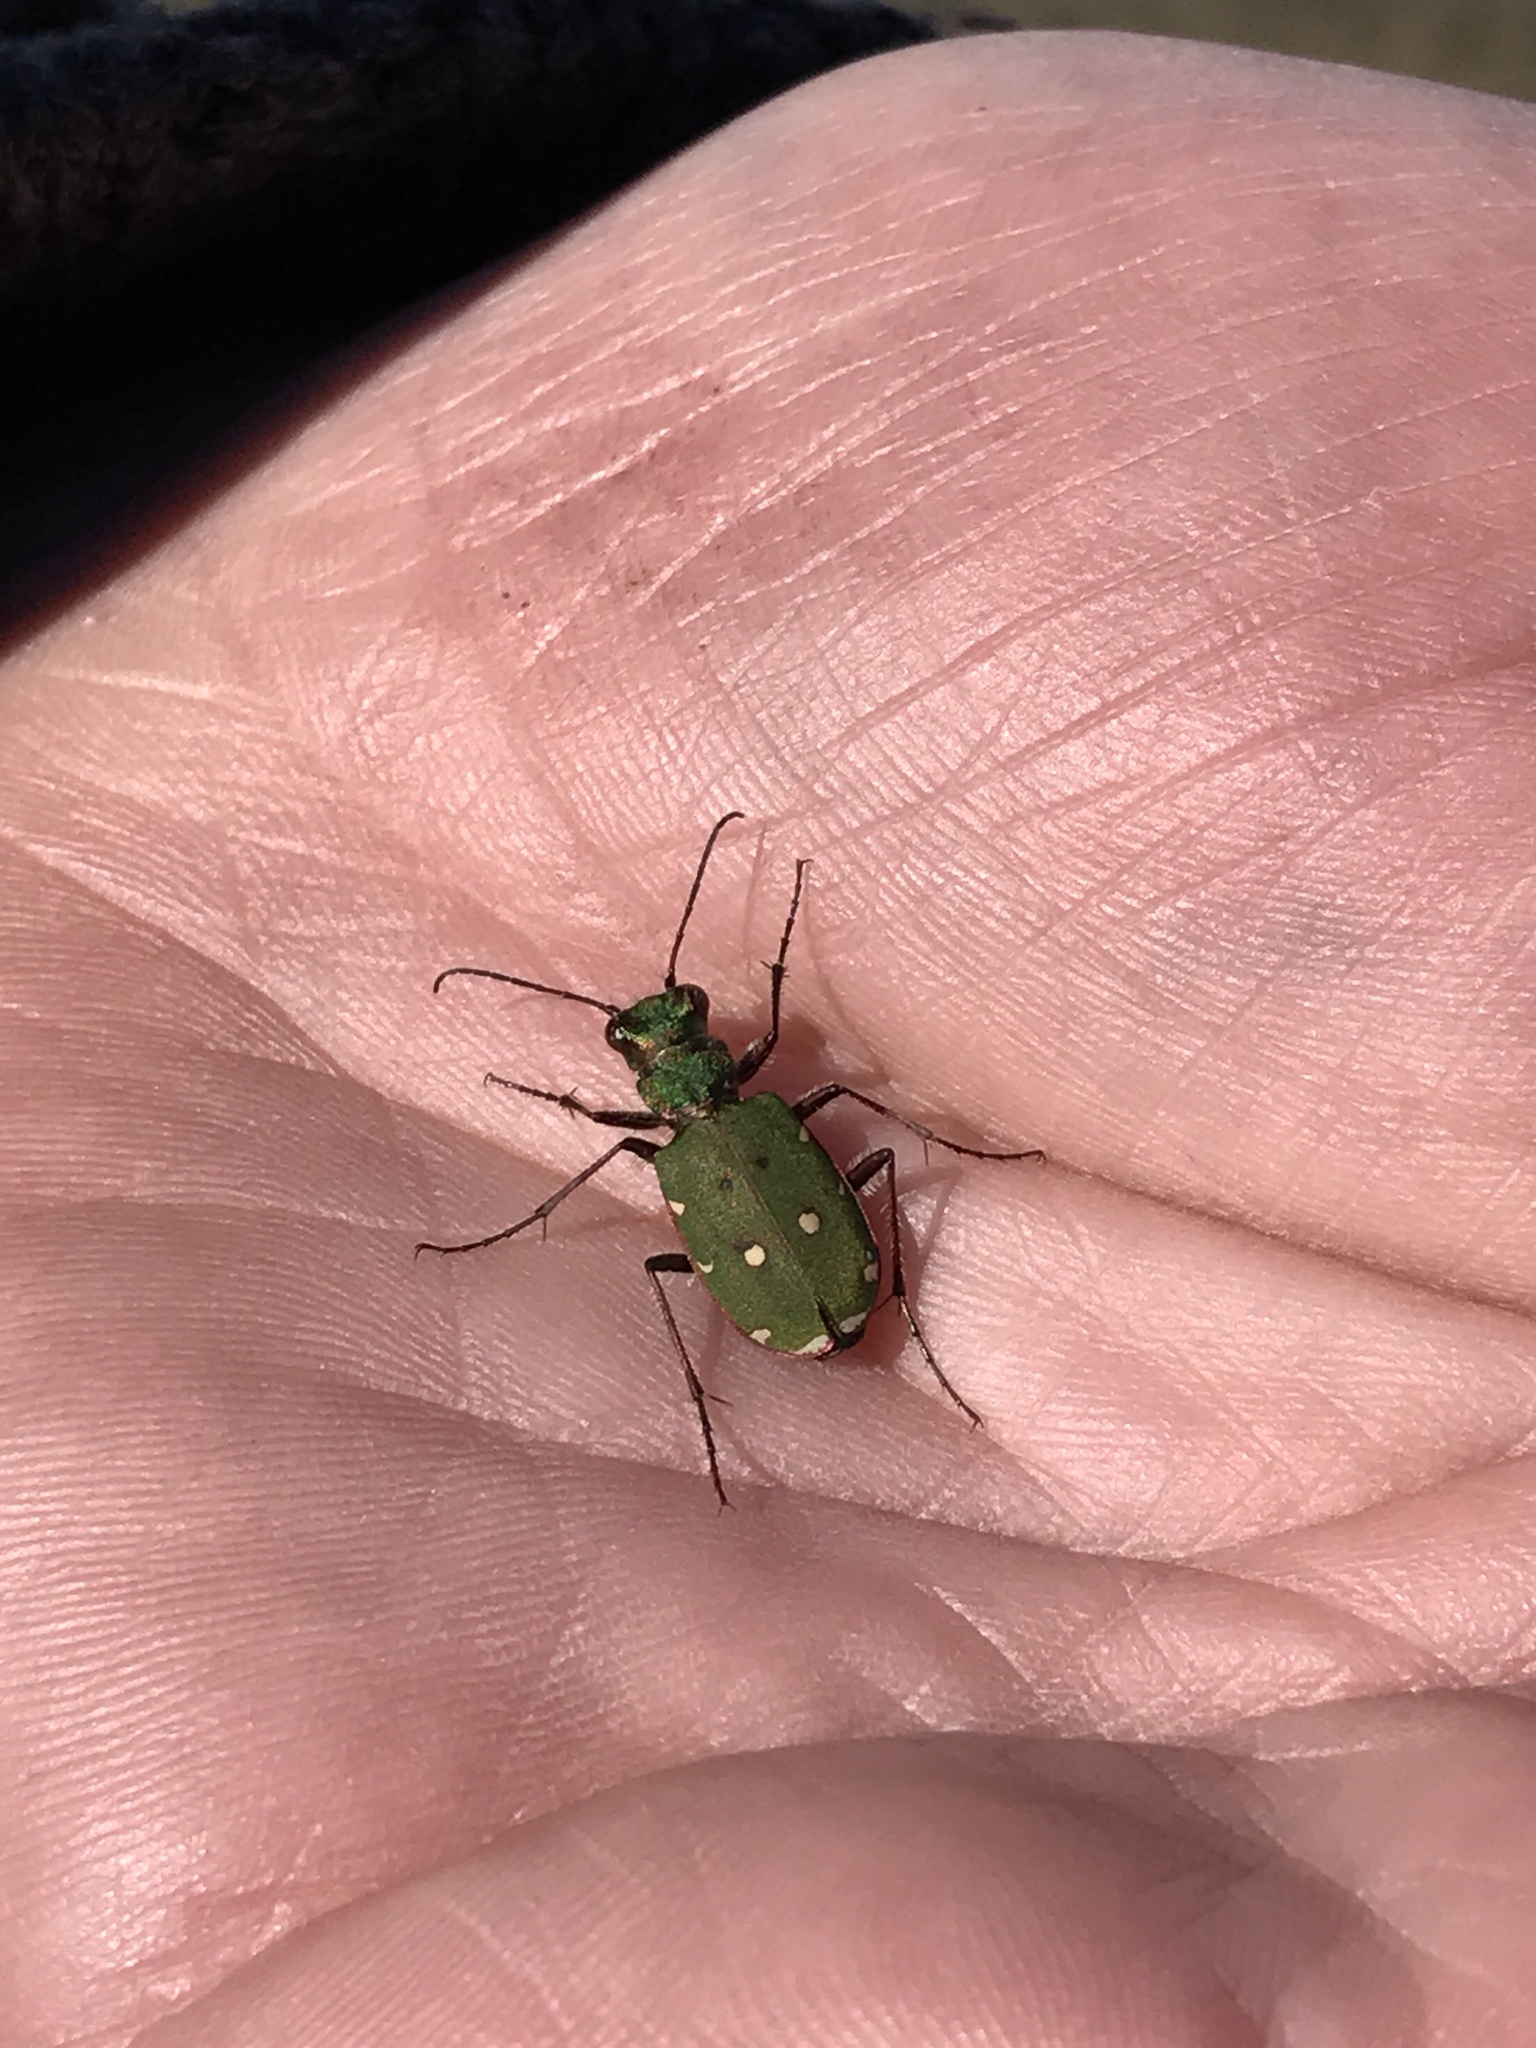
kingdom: Animalia
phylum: Arthropoda
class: Insecta
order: Coleoptera
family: Carabidae
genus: Cicindela
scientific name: Cicindela campestris
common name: Common tiger beetle
